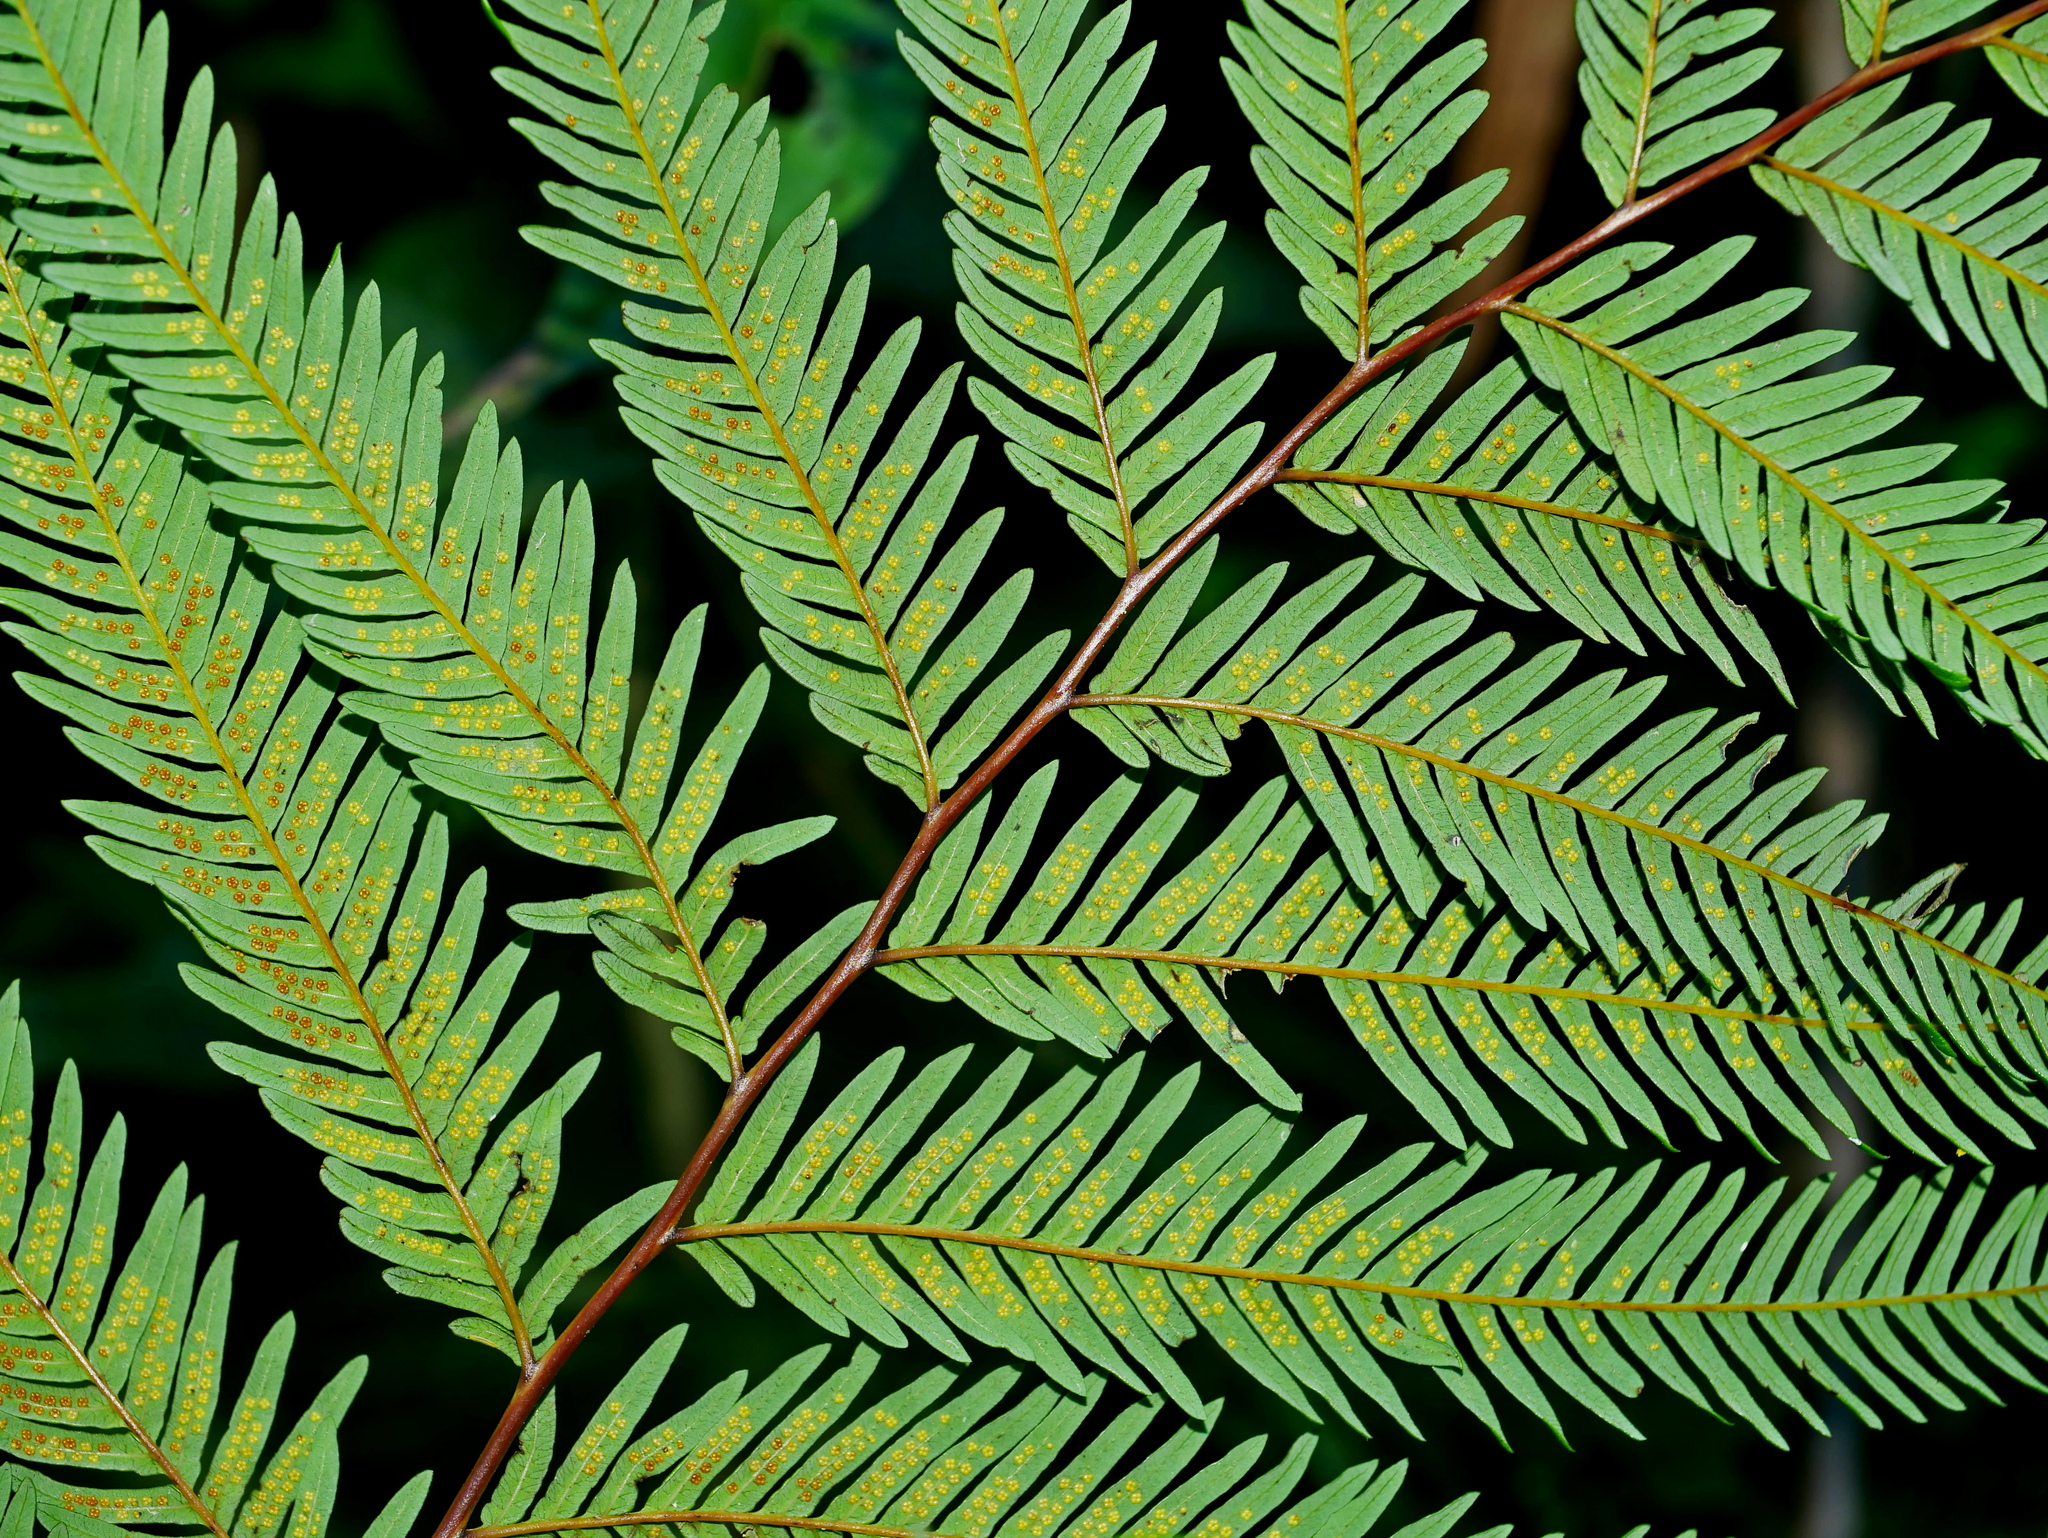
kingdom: Plantae
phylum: Tracheophyta
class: Polypodiopsida
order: Gleicheniales
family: Gleicheniaceae
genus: Diplopterygium
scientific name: Diplopterygium laevissimum
